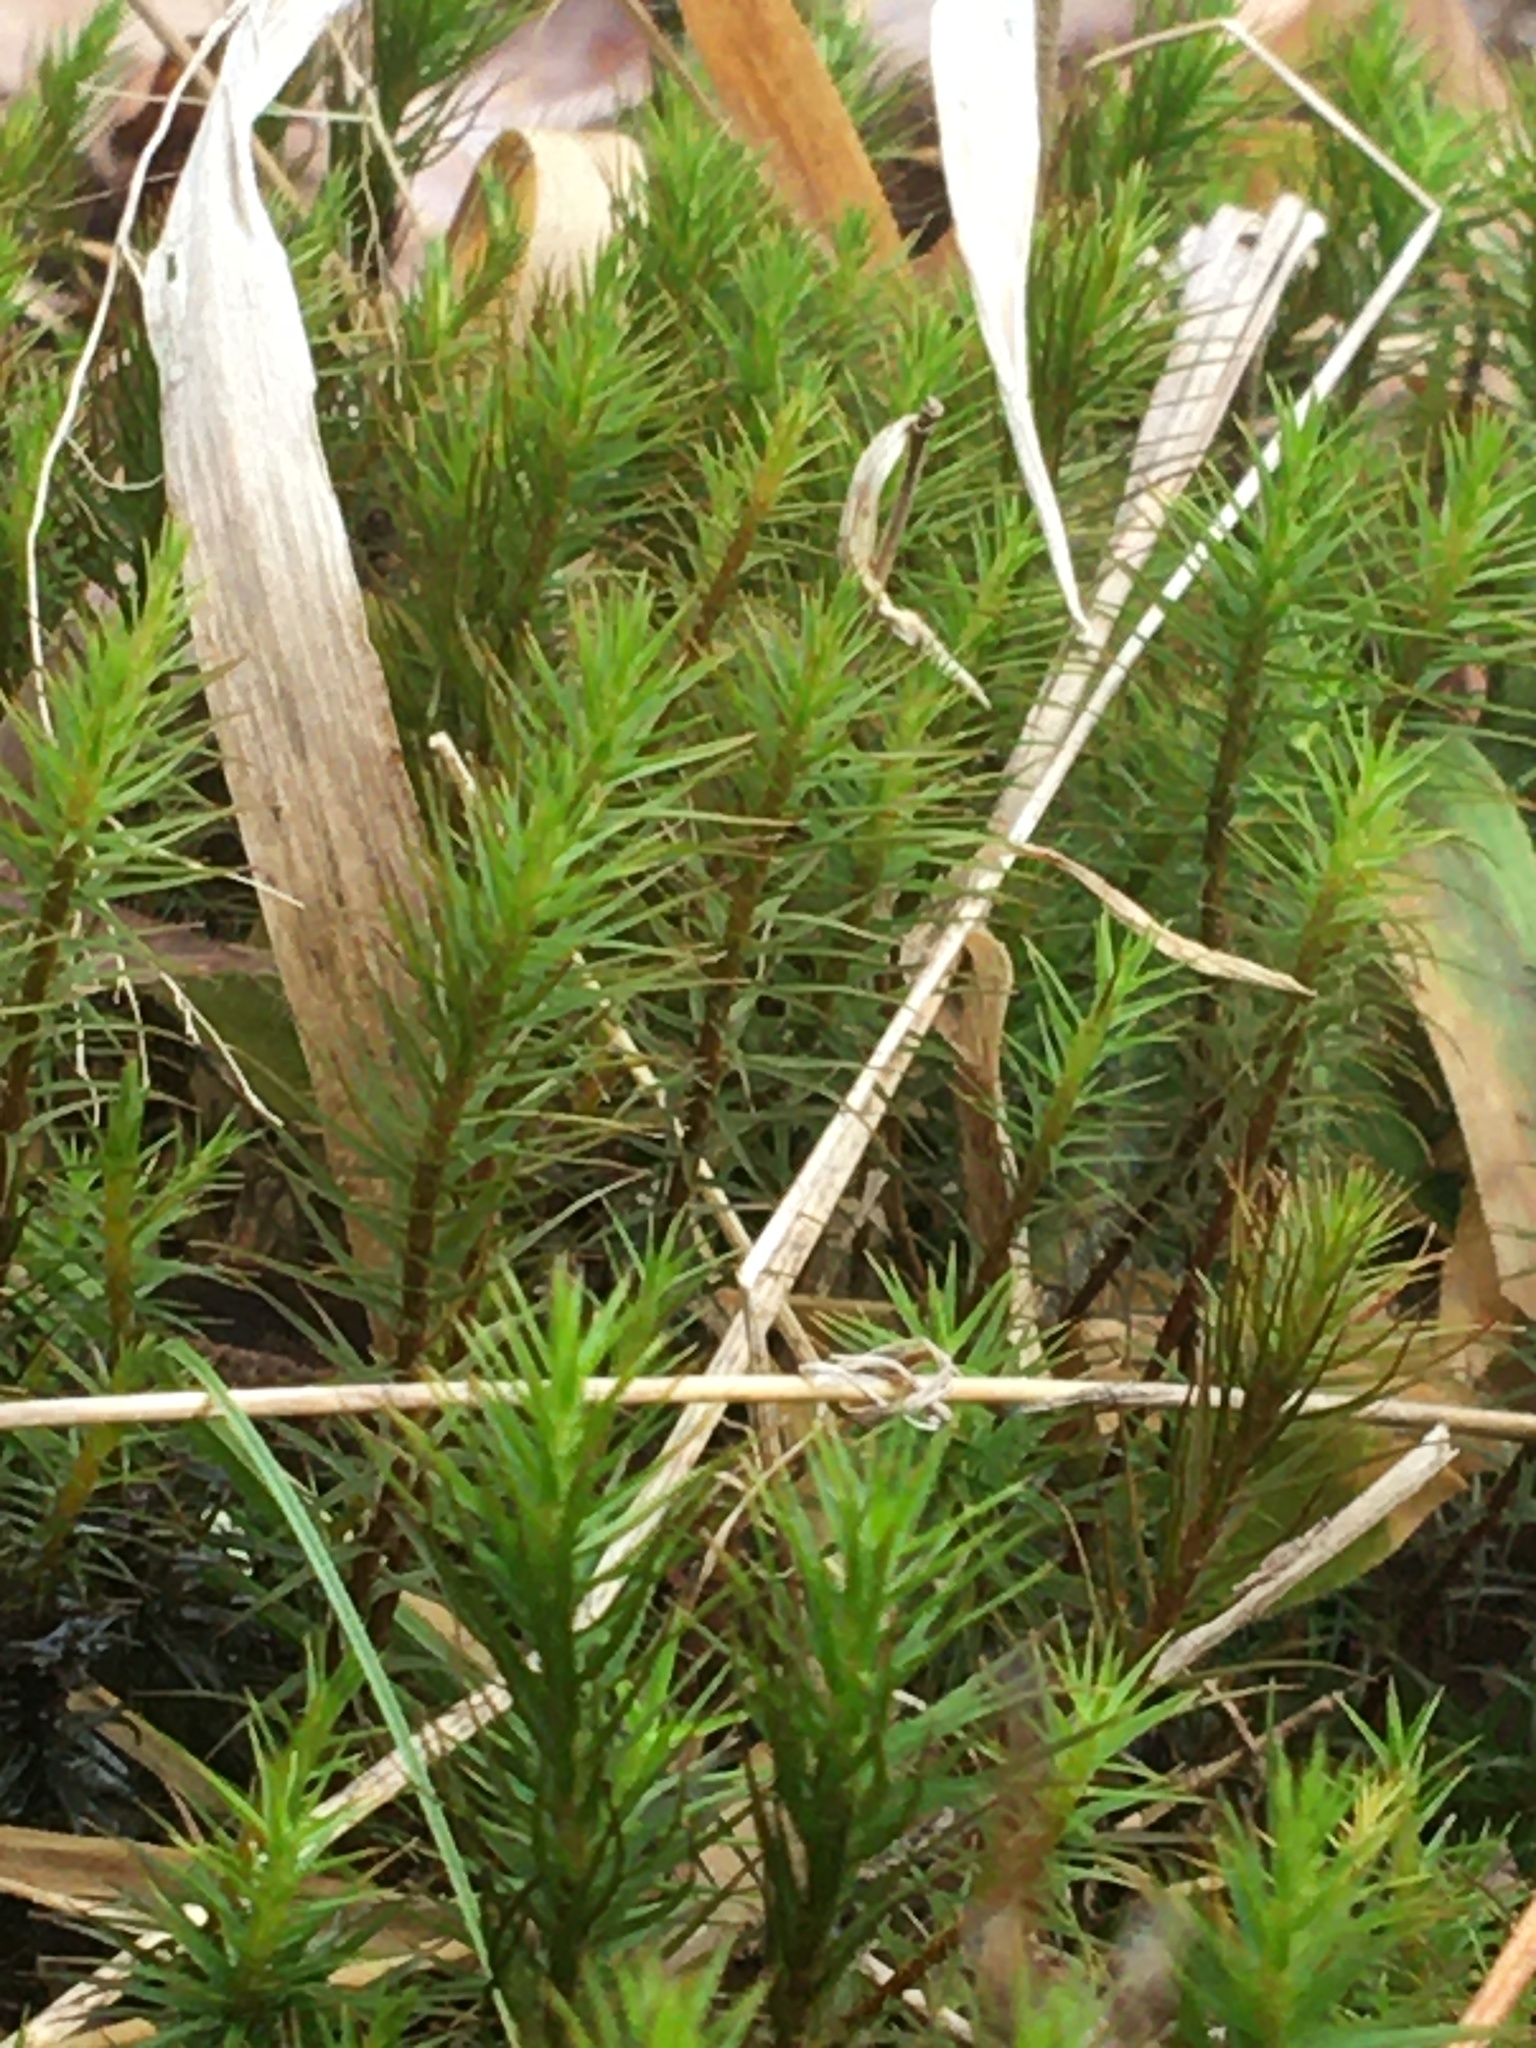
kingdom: Plantae
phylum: Bryophyta
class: Polytrichopsida
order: Polytrichales
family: Polytrichaceae
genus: Polytrichum
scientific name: Polytrichum commune
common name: Common haircap
